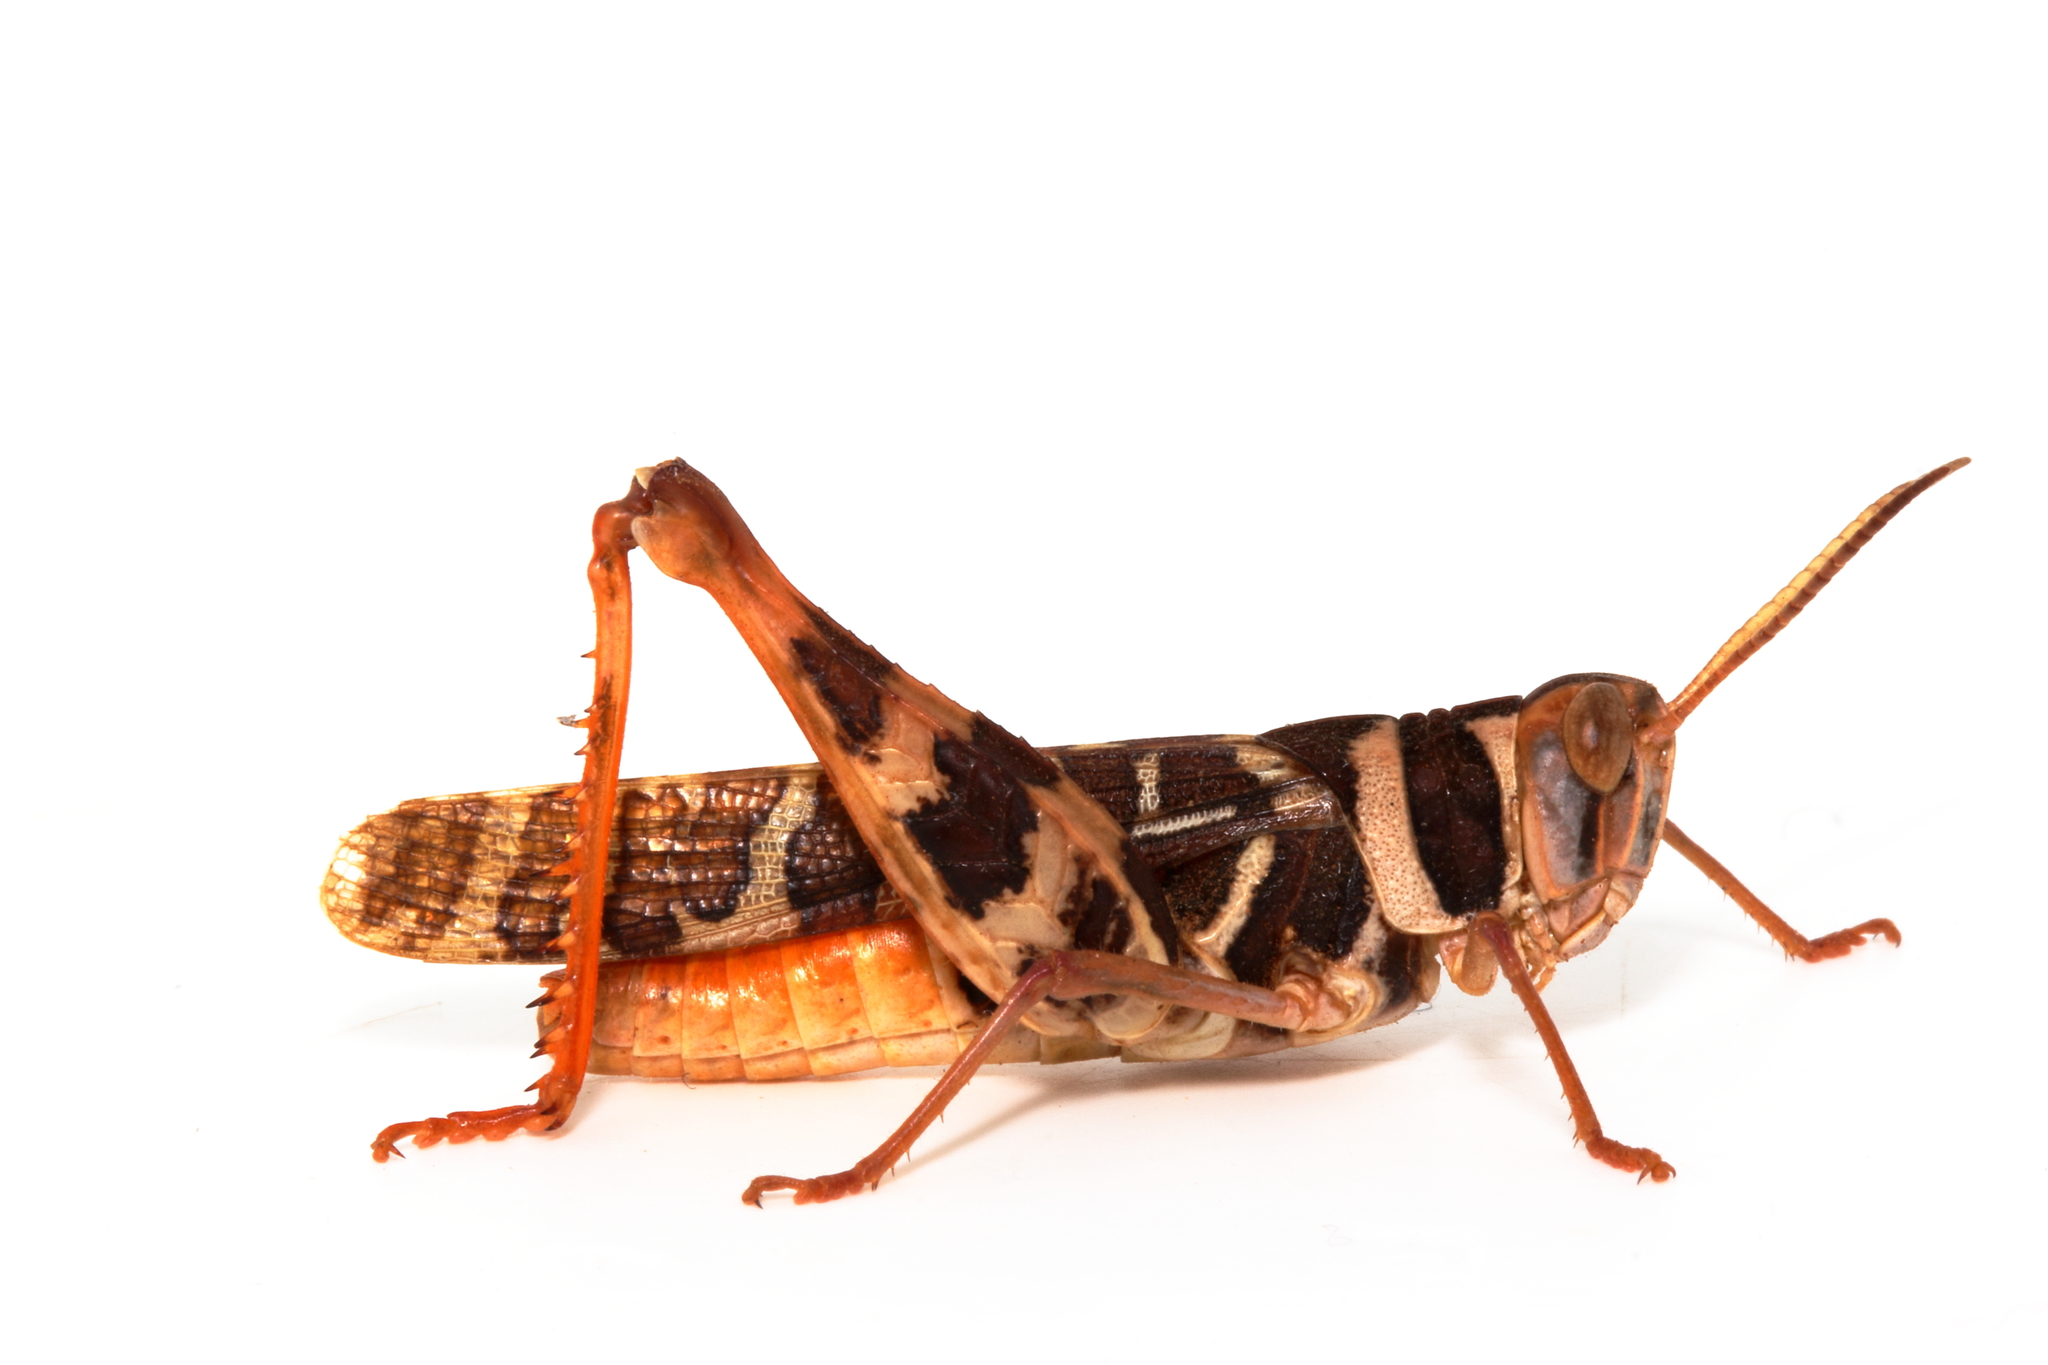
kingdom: Animalia
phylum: Arthropoda
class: Insecta
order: Orthoptera
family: Acrididae
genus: Stropis
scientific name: Stropis maculosa
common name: Leopard grasshopper
